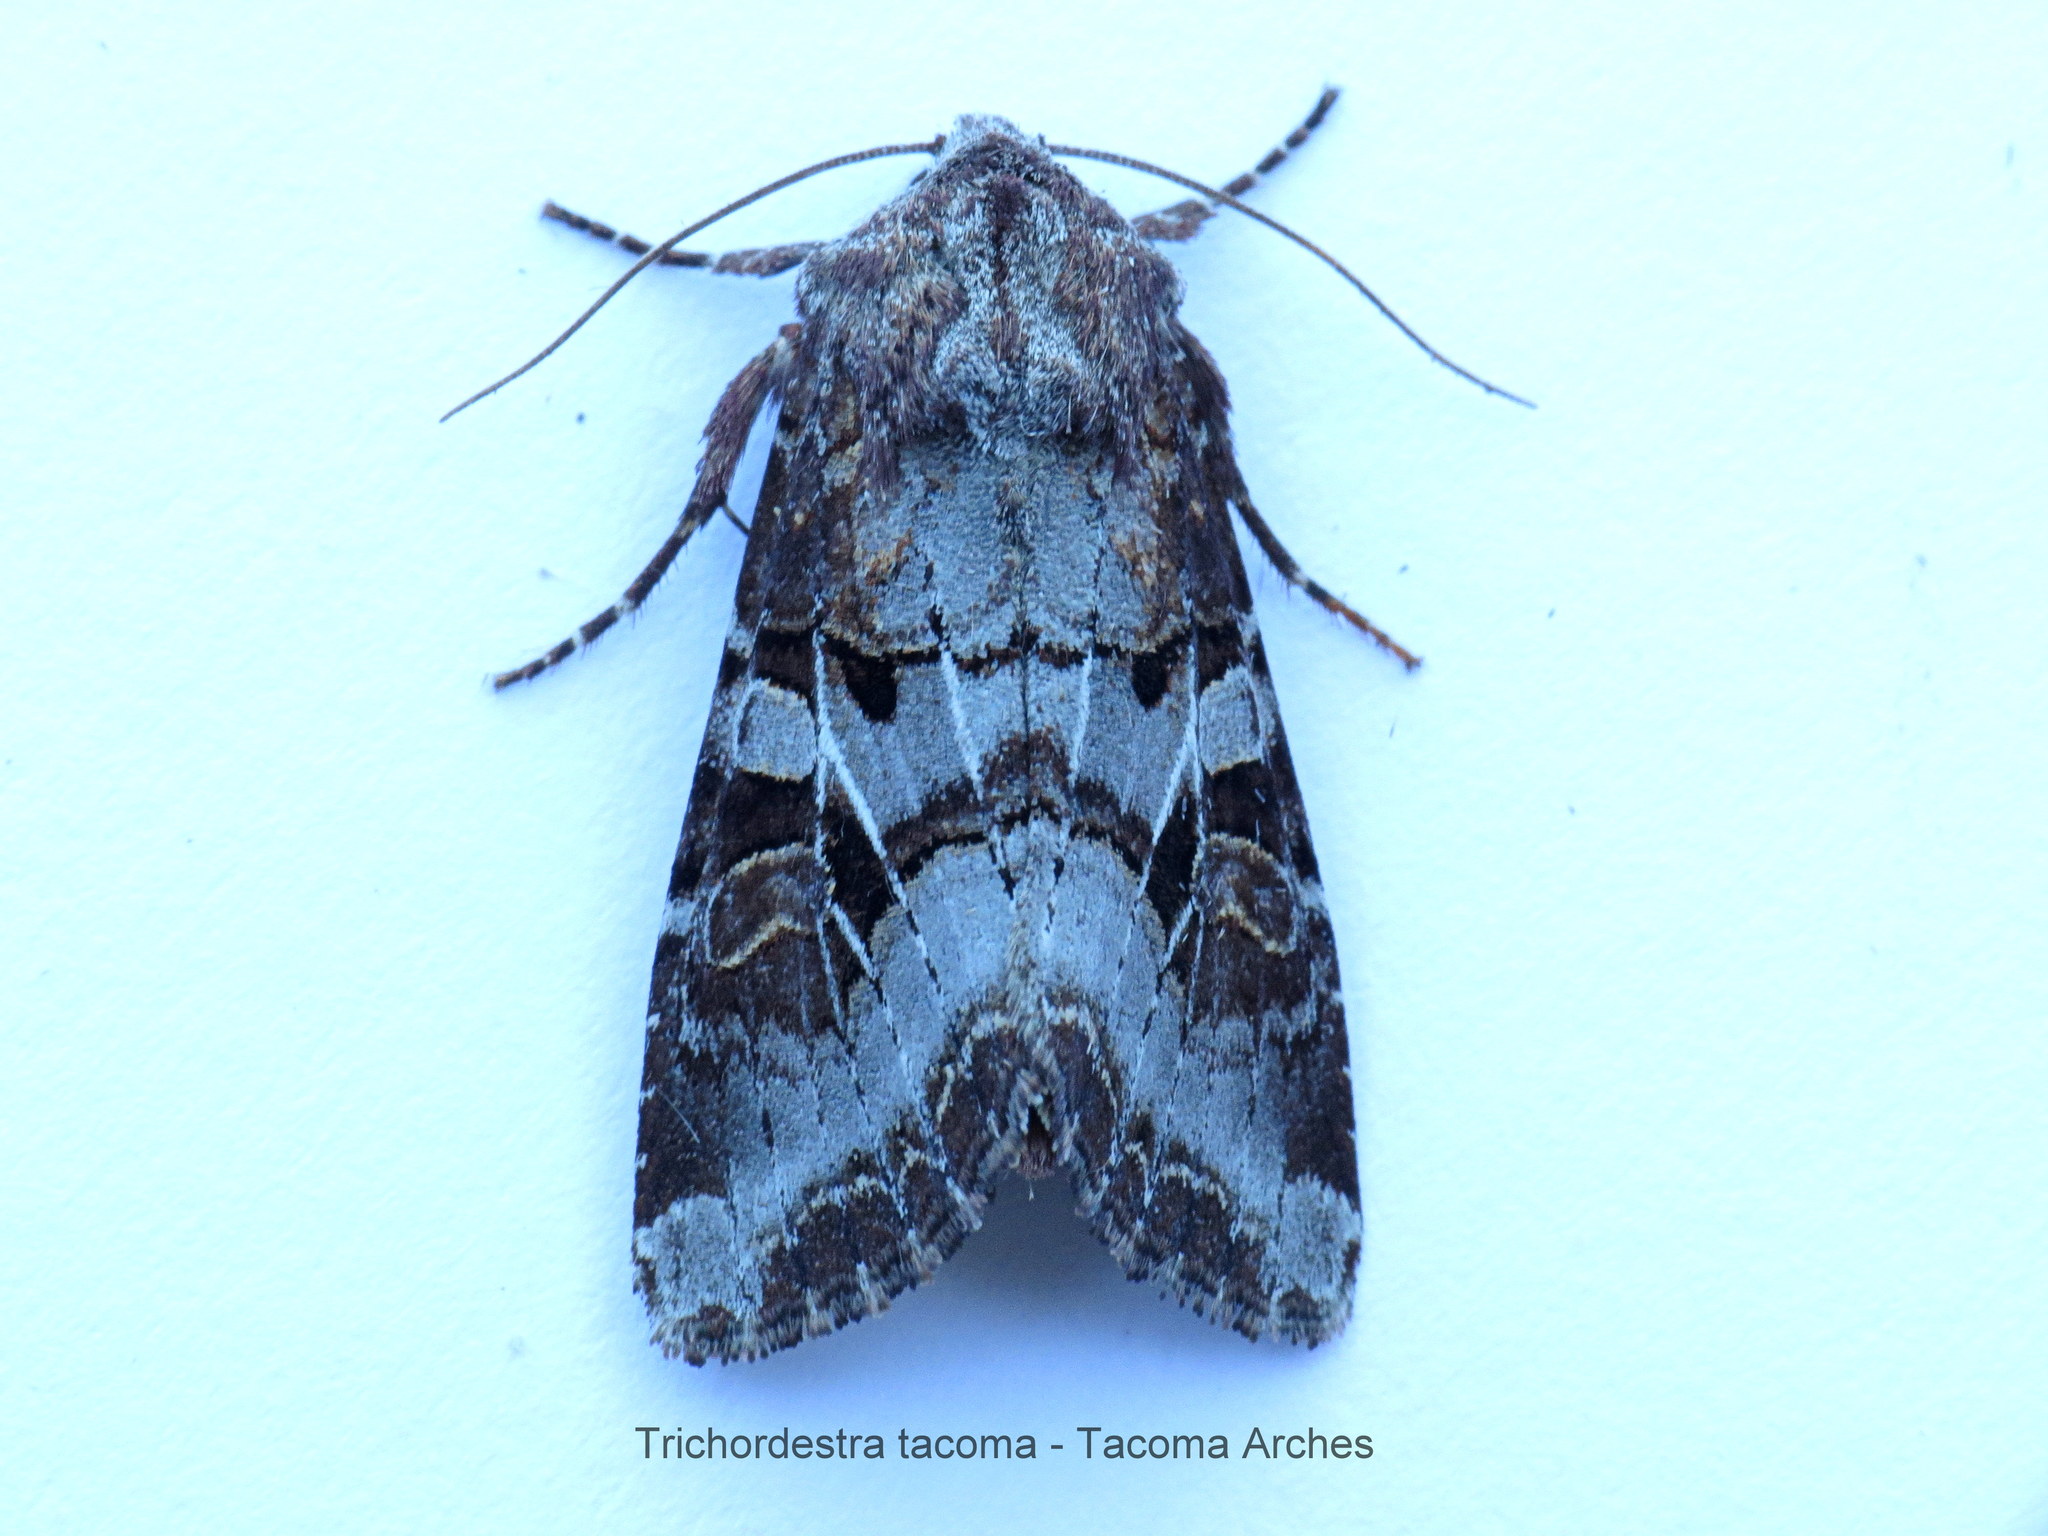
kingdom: Animalia
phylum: Arthropoda
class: Insecta
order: Lepidoptera
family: Noctuidae
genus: Trichordestra
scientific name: Trichordestra tacoma
